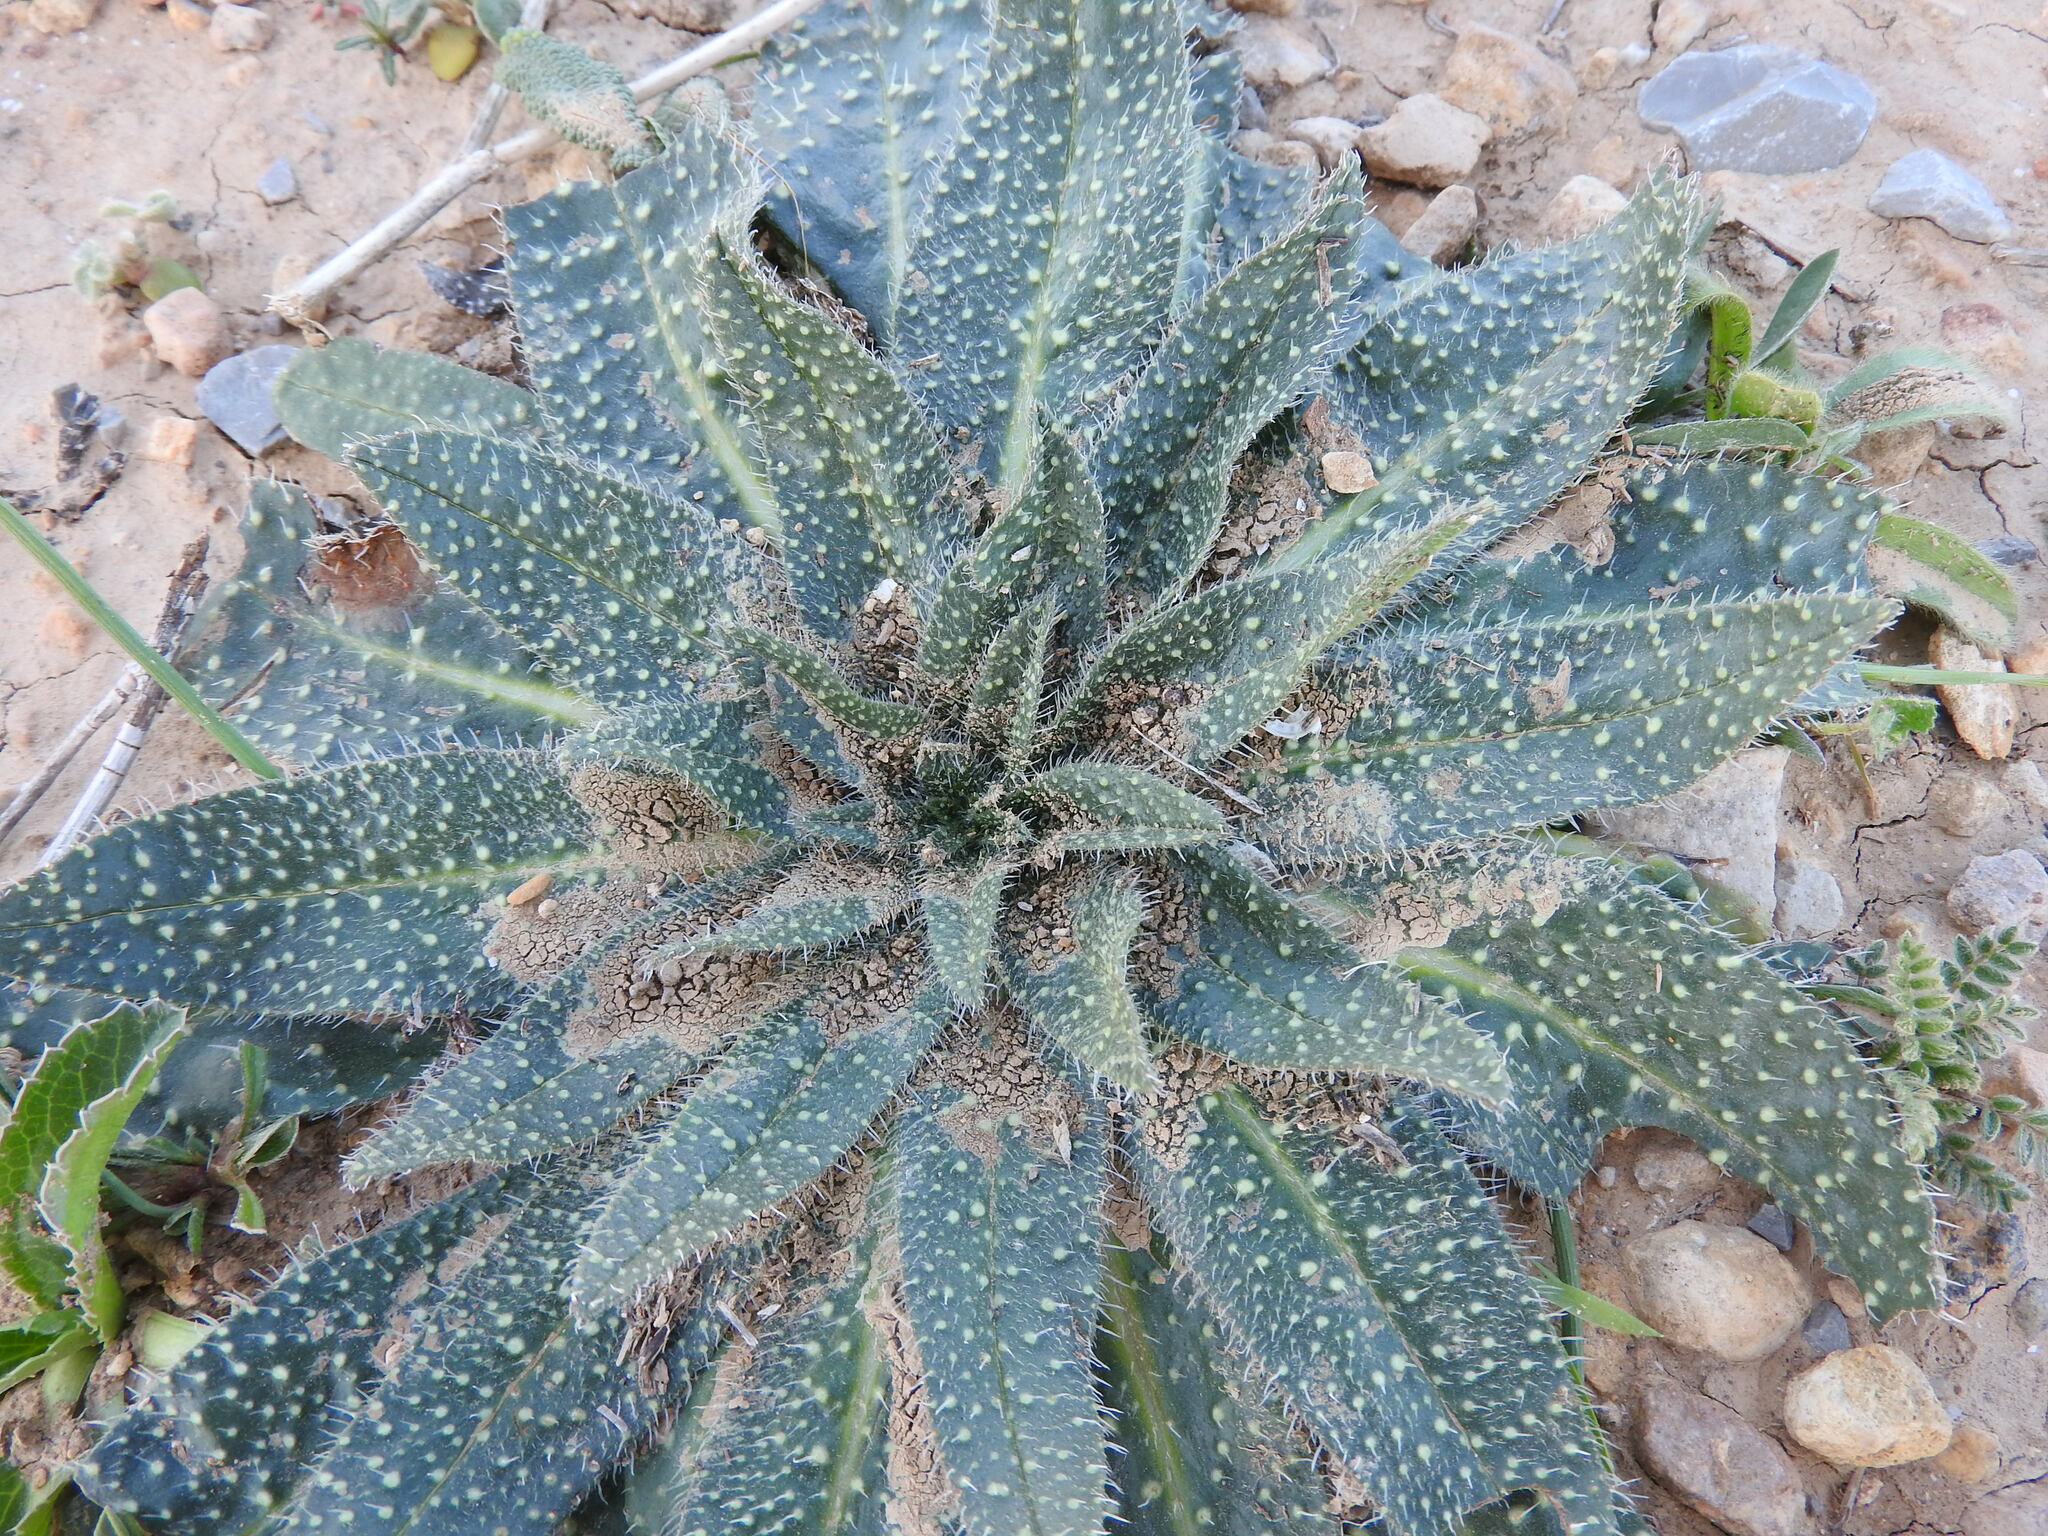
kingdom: Plantae
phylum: Tracheophyta
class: Magnoliopsida
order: Boraginales
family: Boraginaceae
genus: Echium
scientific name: Echium asperrimum
